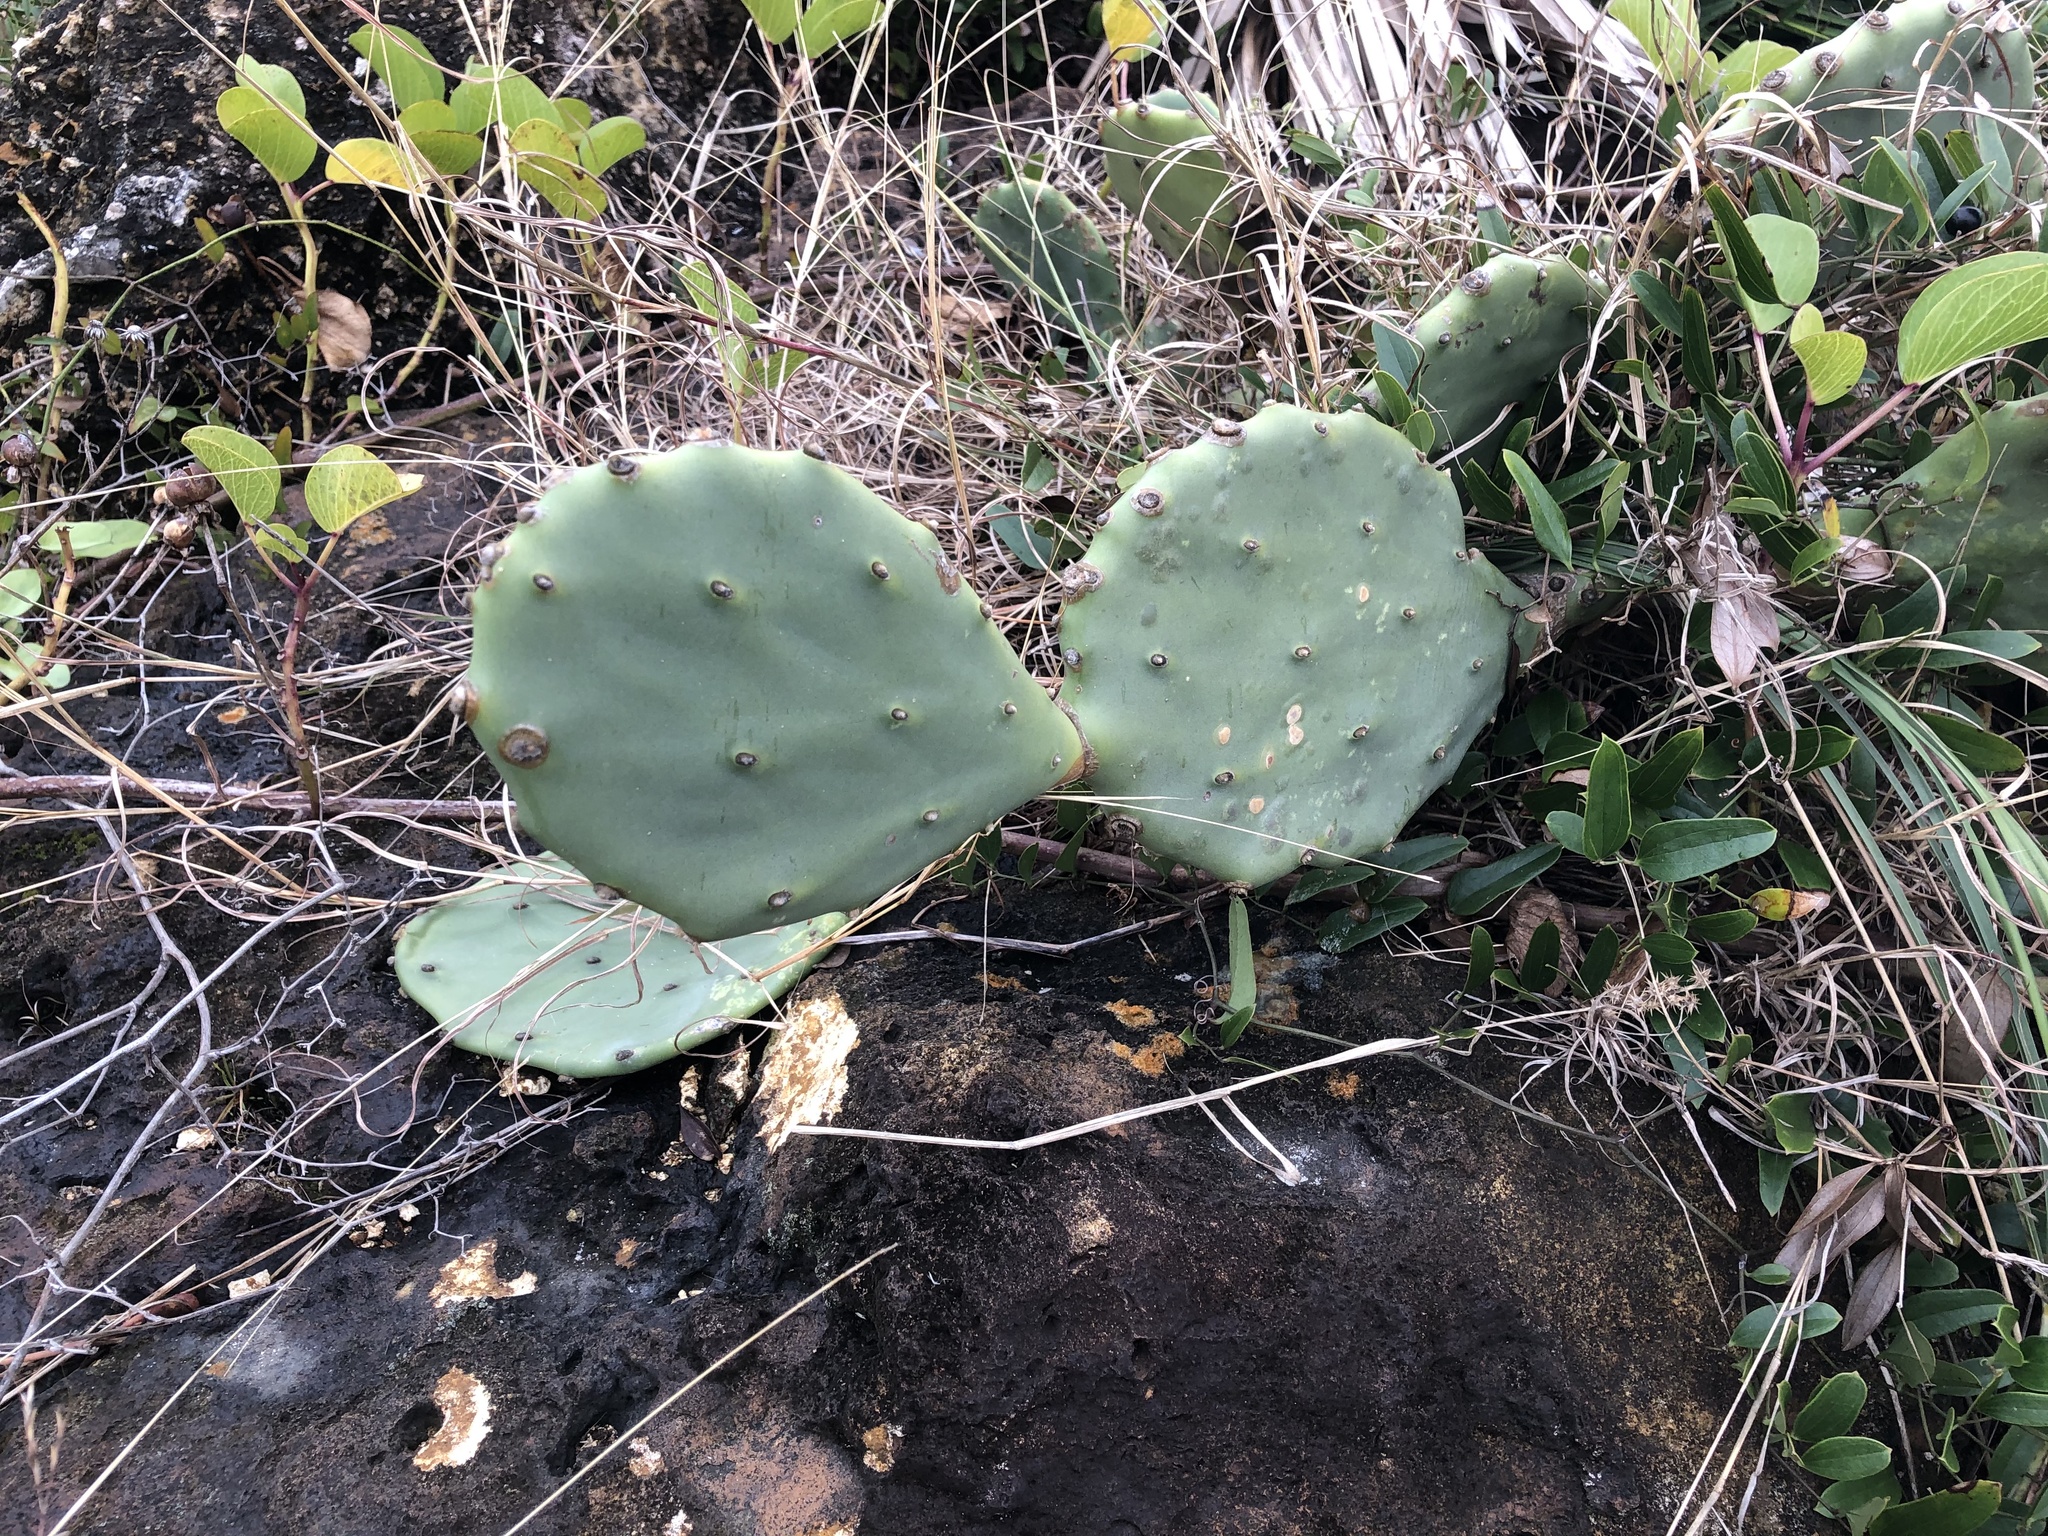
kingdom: Plantae
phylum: Tracheophyta
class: Magnoliopsida
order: Caryophyllales
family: Cactaceae
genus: Opuntia
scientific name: Opuntia mesacantha
